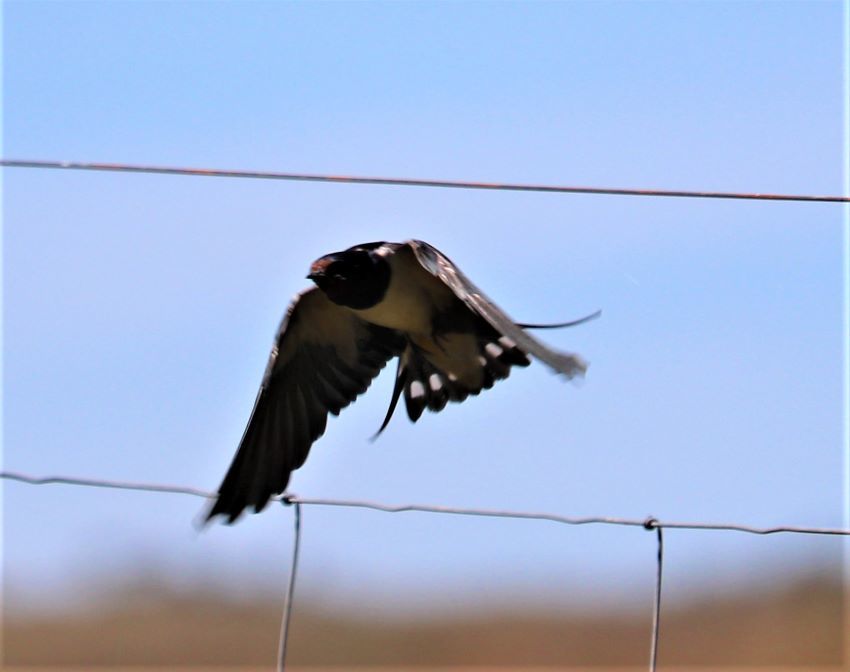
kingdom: Animalia
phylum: Chordata
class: Aves
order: Passeriformes
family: Hirundinidae
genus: Hirundo
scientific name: Hirundo rustica
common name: Barn swallow
